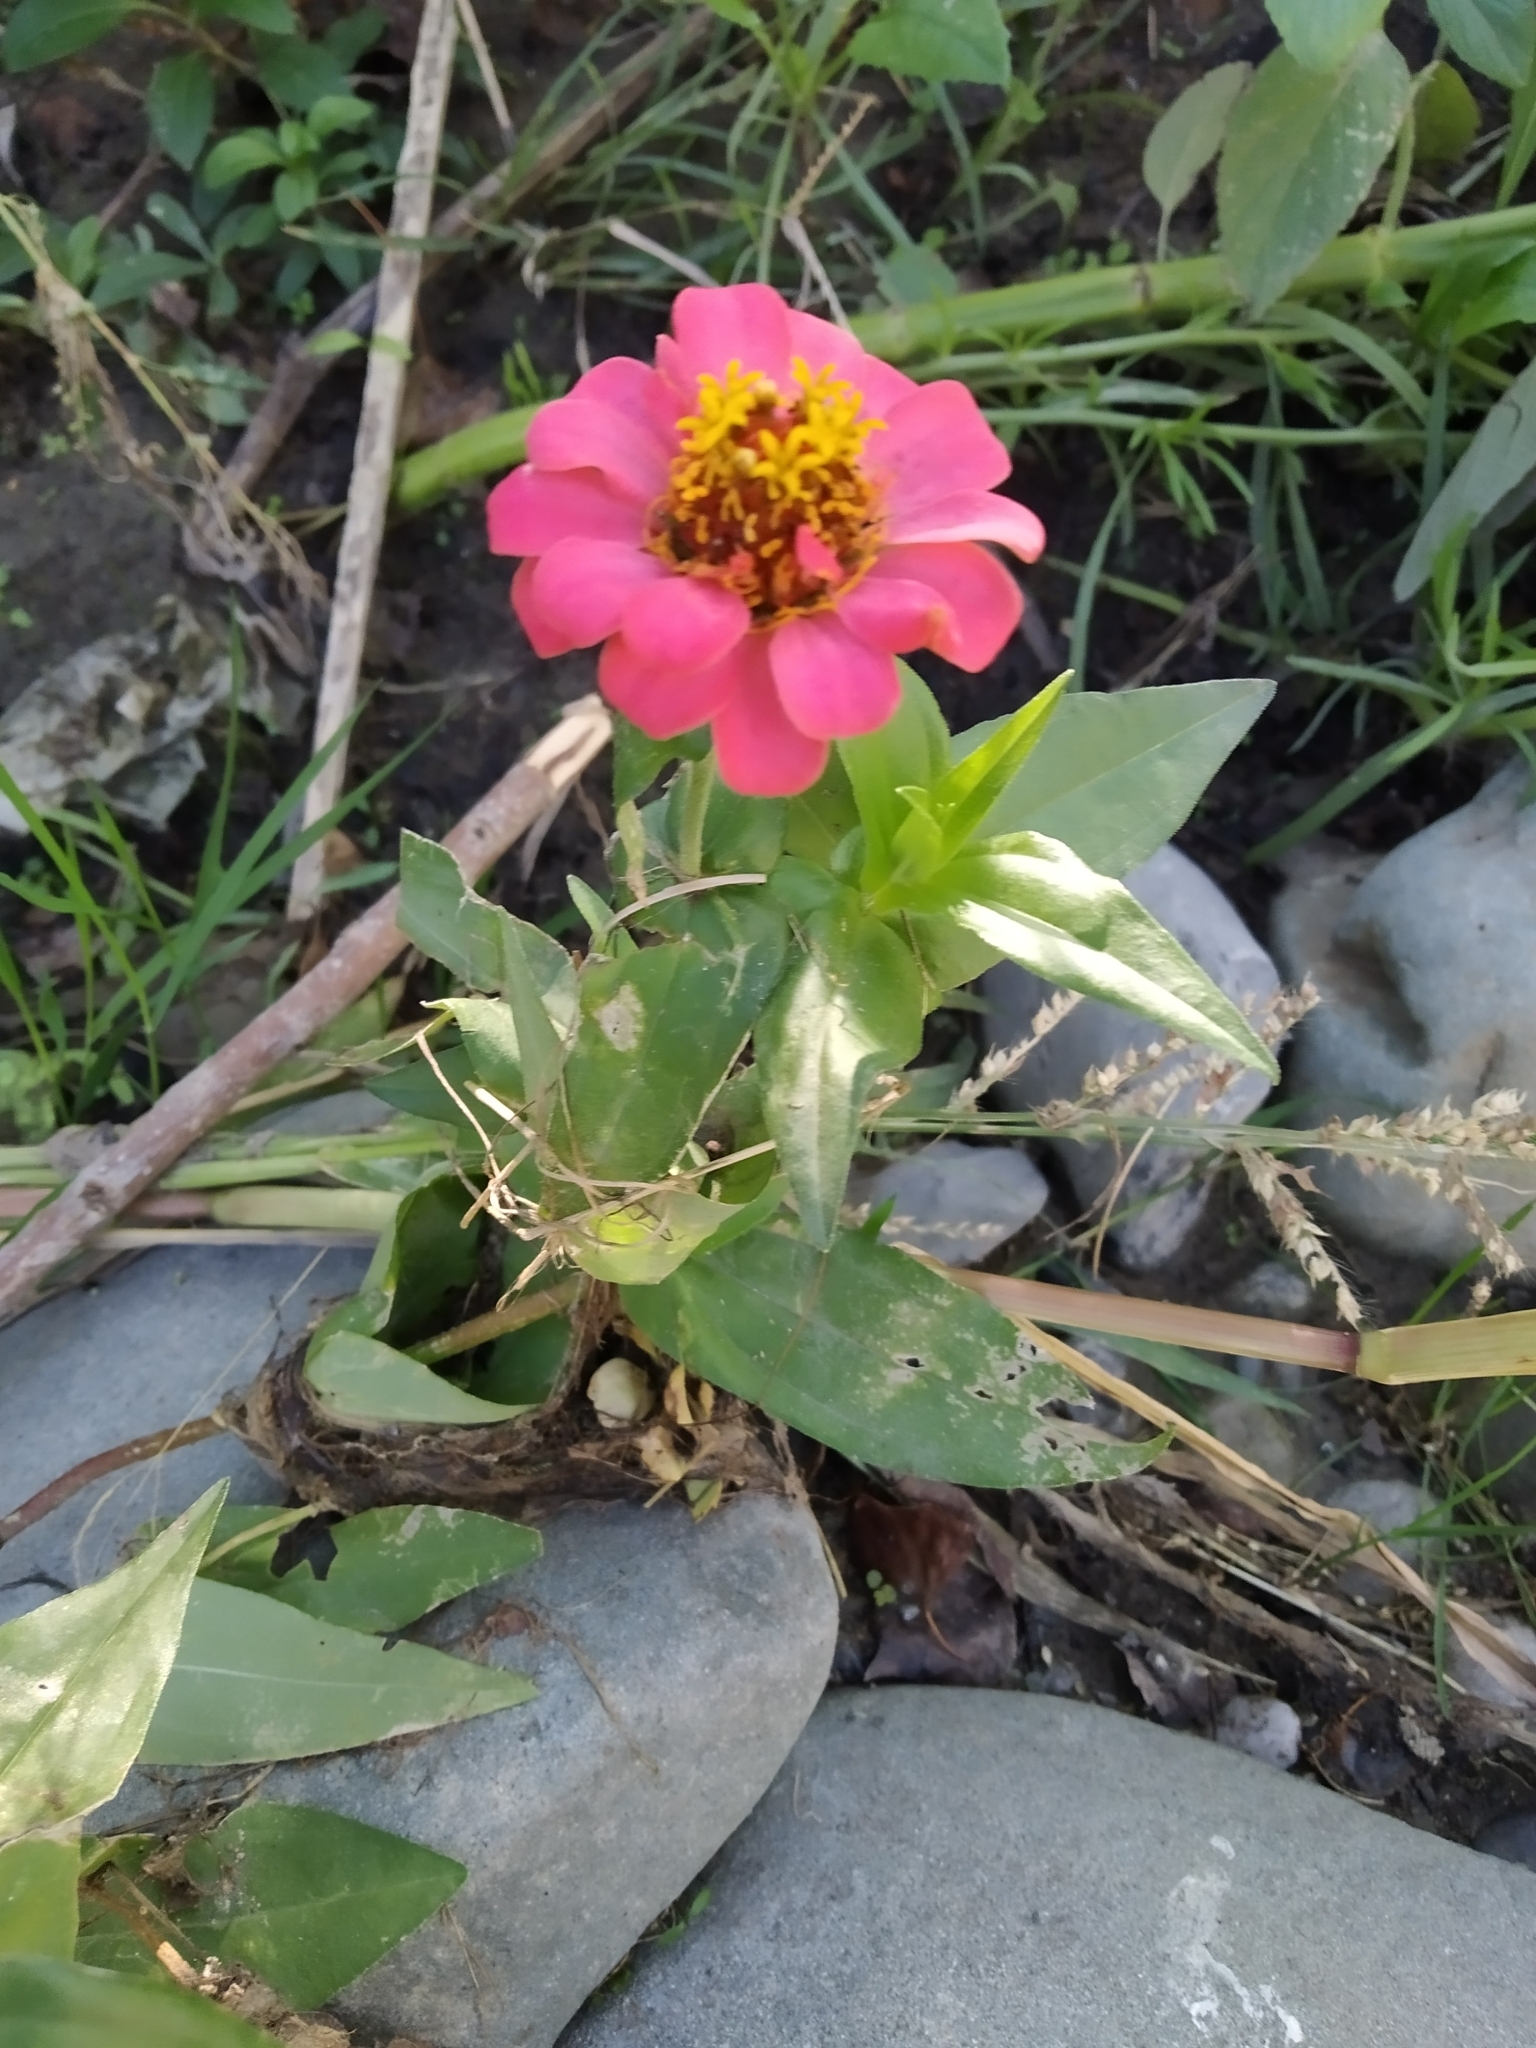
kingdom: Plantae
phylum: Tracheophyta
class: Magnoliopsida
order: Asterales
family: Asteraceae
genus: Zinnia
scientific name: Zinnia elegans
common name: Youth-and-age
